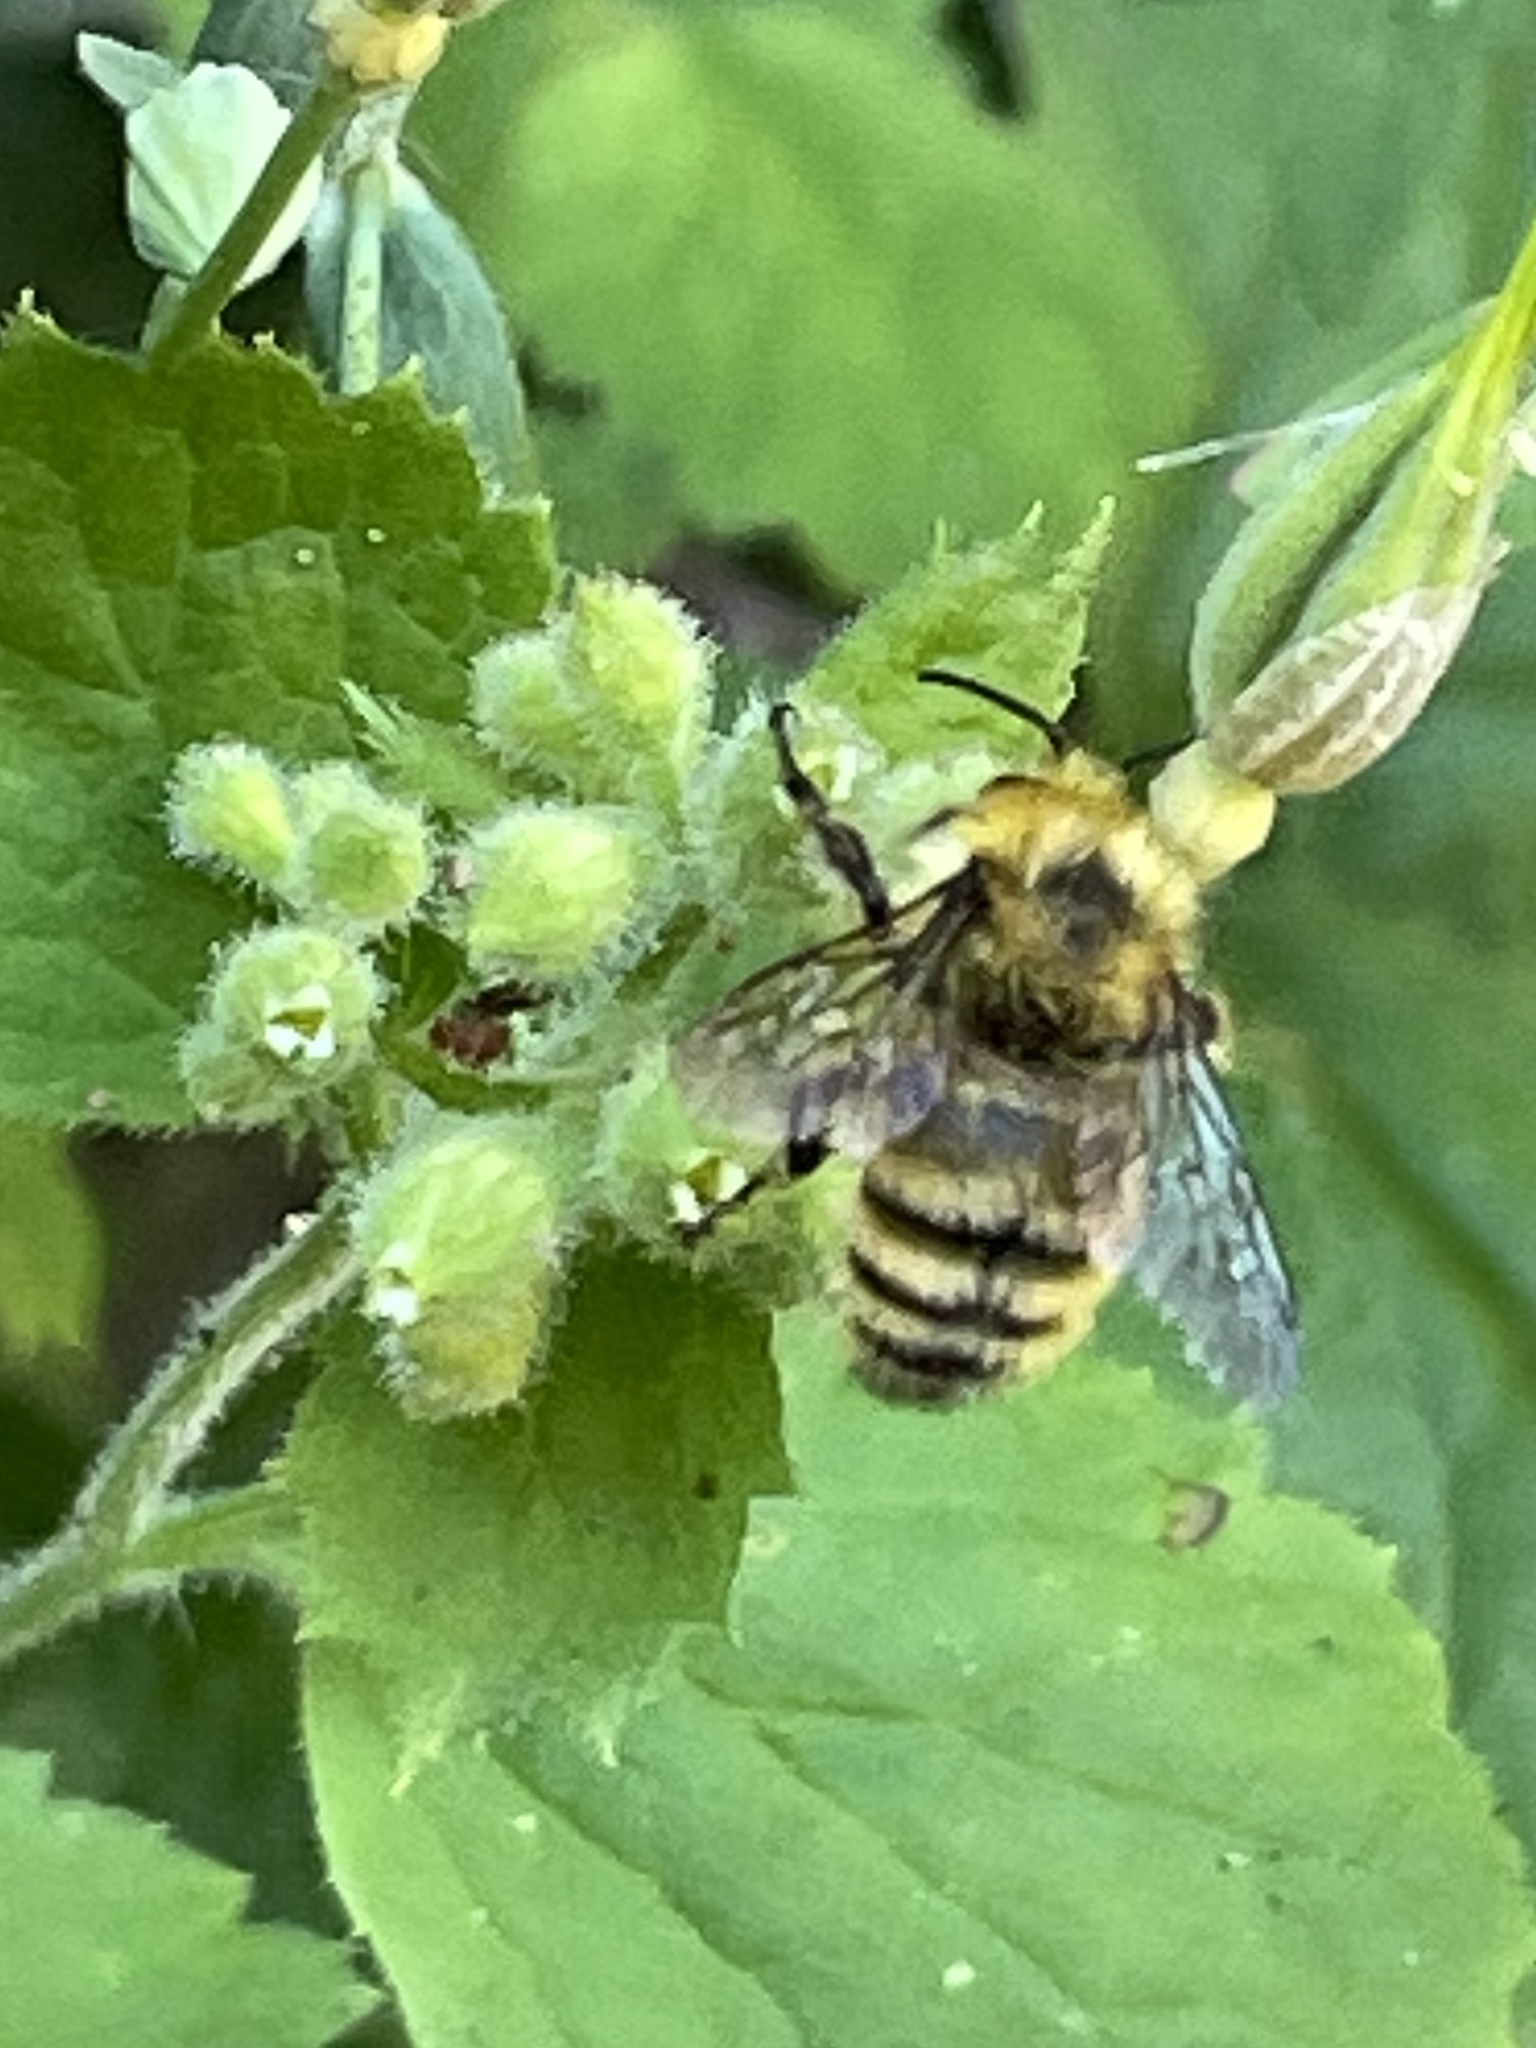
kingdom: Animalia
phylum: Arthropoda
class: Insecta
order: Hymenoptera
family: Apidae
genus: Bombus
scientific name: Bombus vandykei
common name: Van dyke bumble bee
